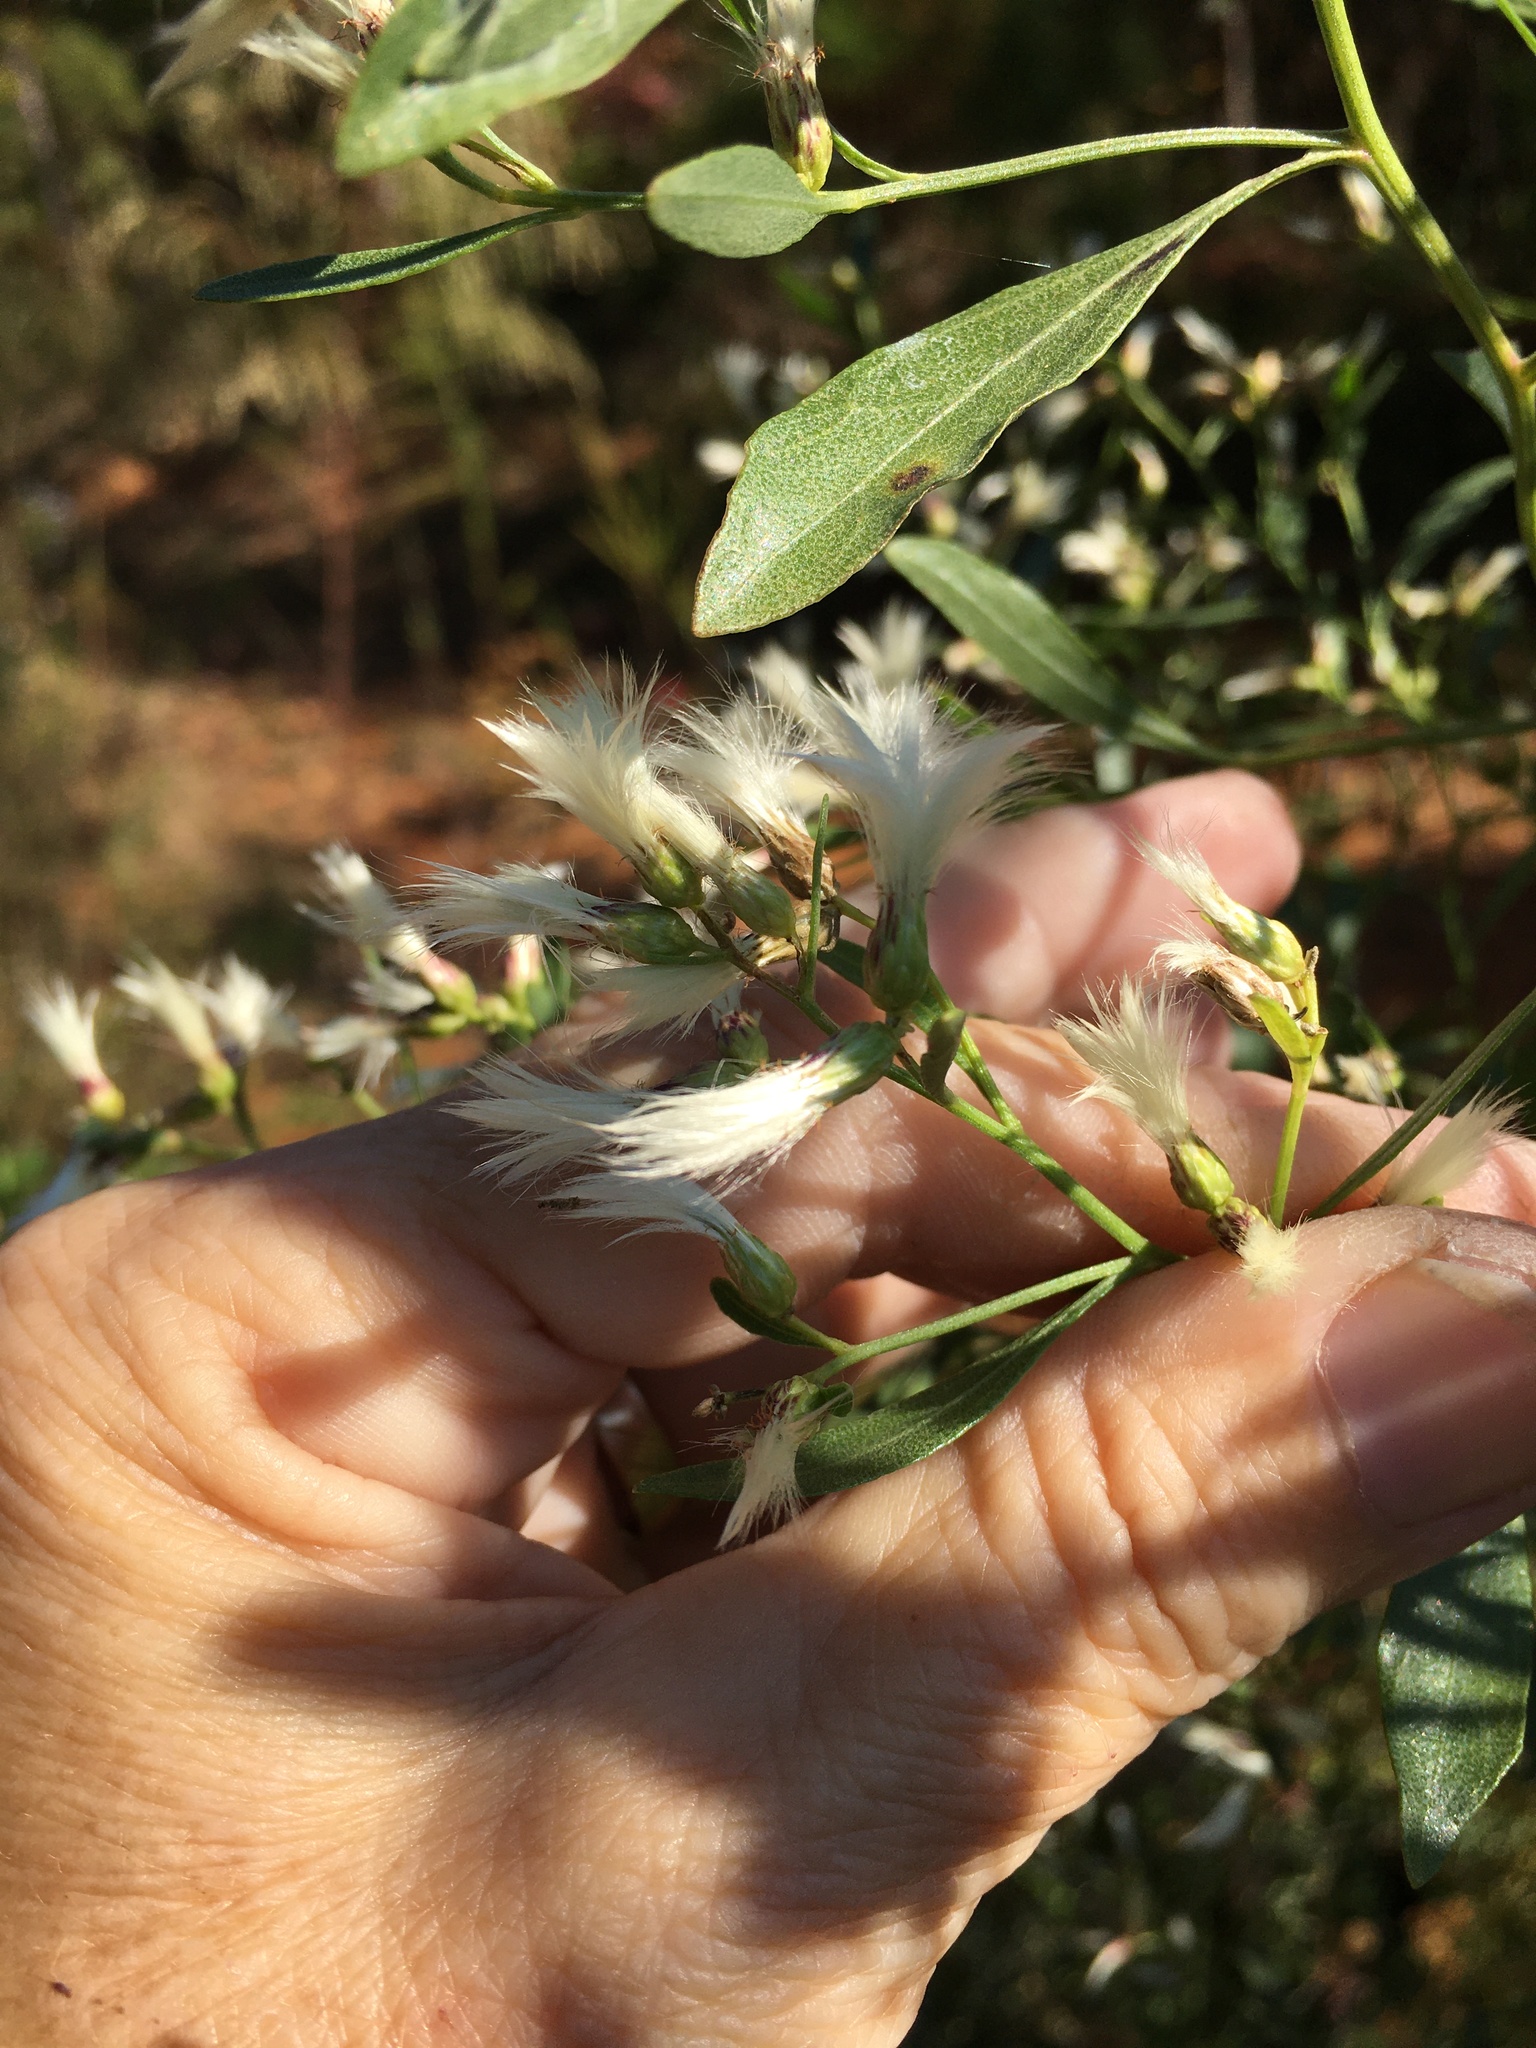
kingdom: Plantae
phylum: Tracheophyta
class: Magnoliopsida
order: Asterales
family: Asteraceae
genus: Baccharis
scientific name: Baccharis halimifolia
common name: Eastern baccharis
